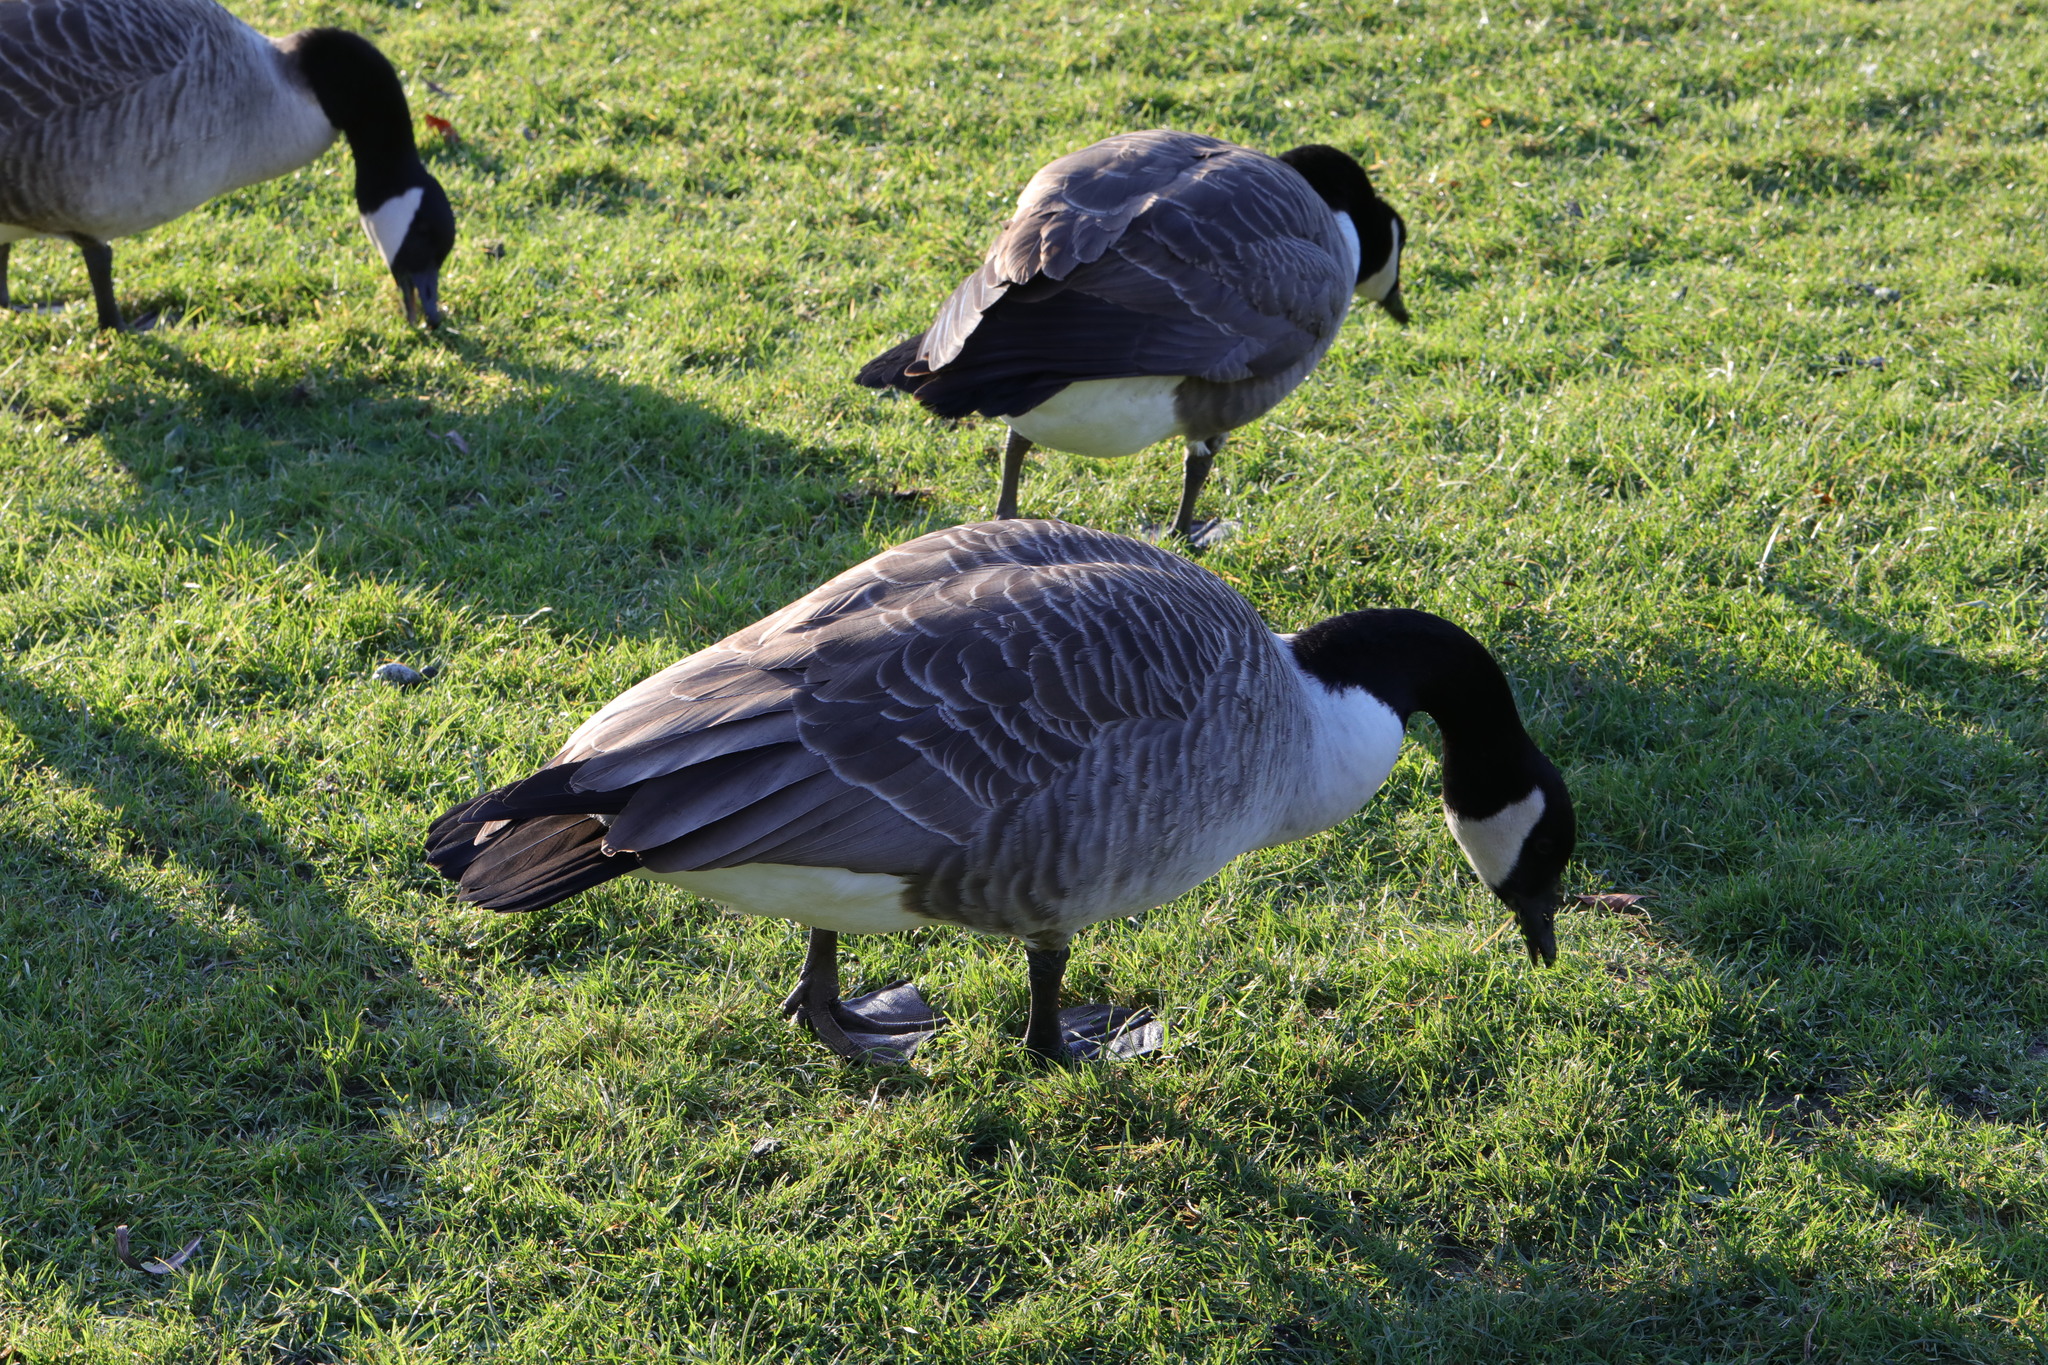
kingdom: Animalia
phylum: Chordata
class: Aves
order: Anseriformes
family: Anatidae
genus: Branta
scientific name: Branta canadensis
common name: Canada goose
